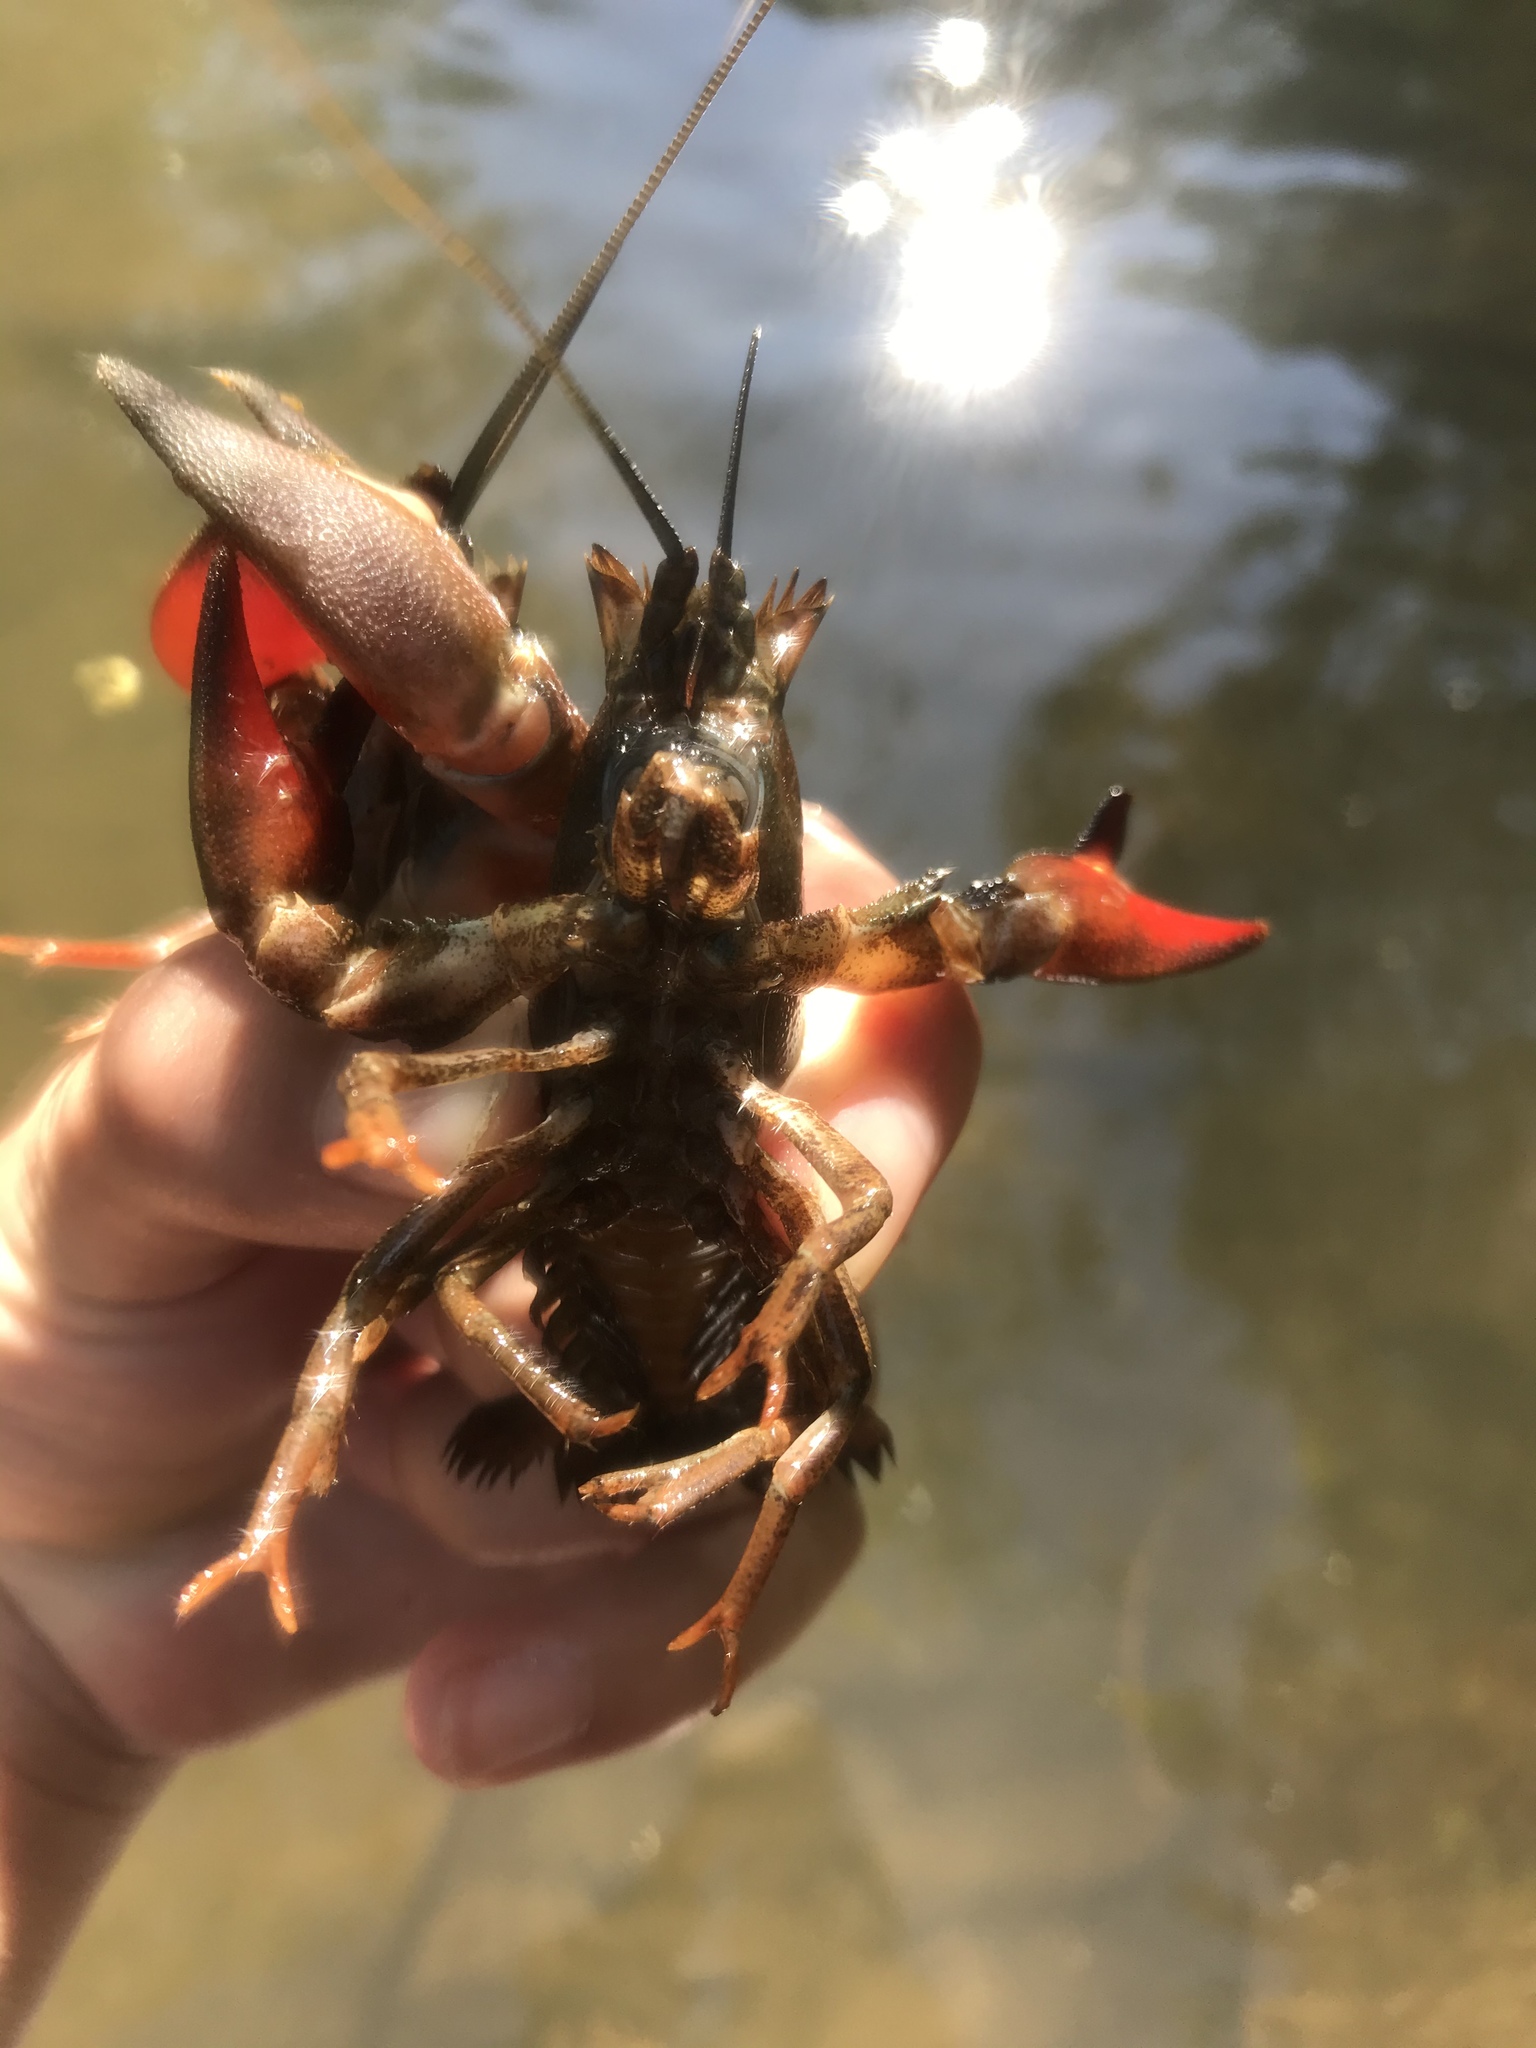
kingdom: Animalia
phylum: Arthropoda
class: Malacostraca
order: Decapoda
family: Astacidae
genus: Pacifastacus
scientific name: Pacifastacus leniusculus
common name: Signal crayfish
